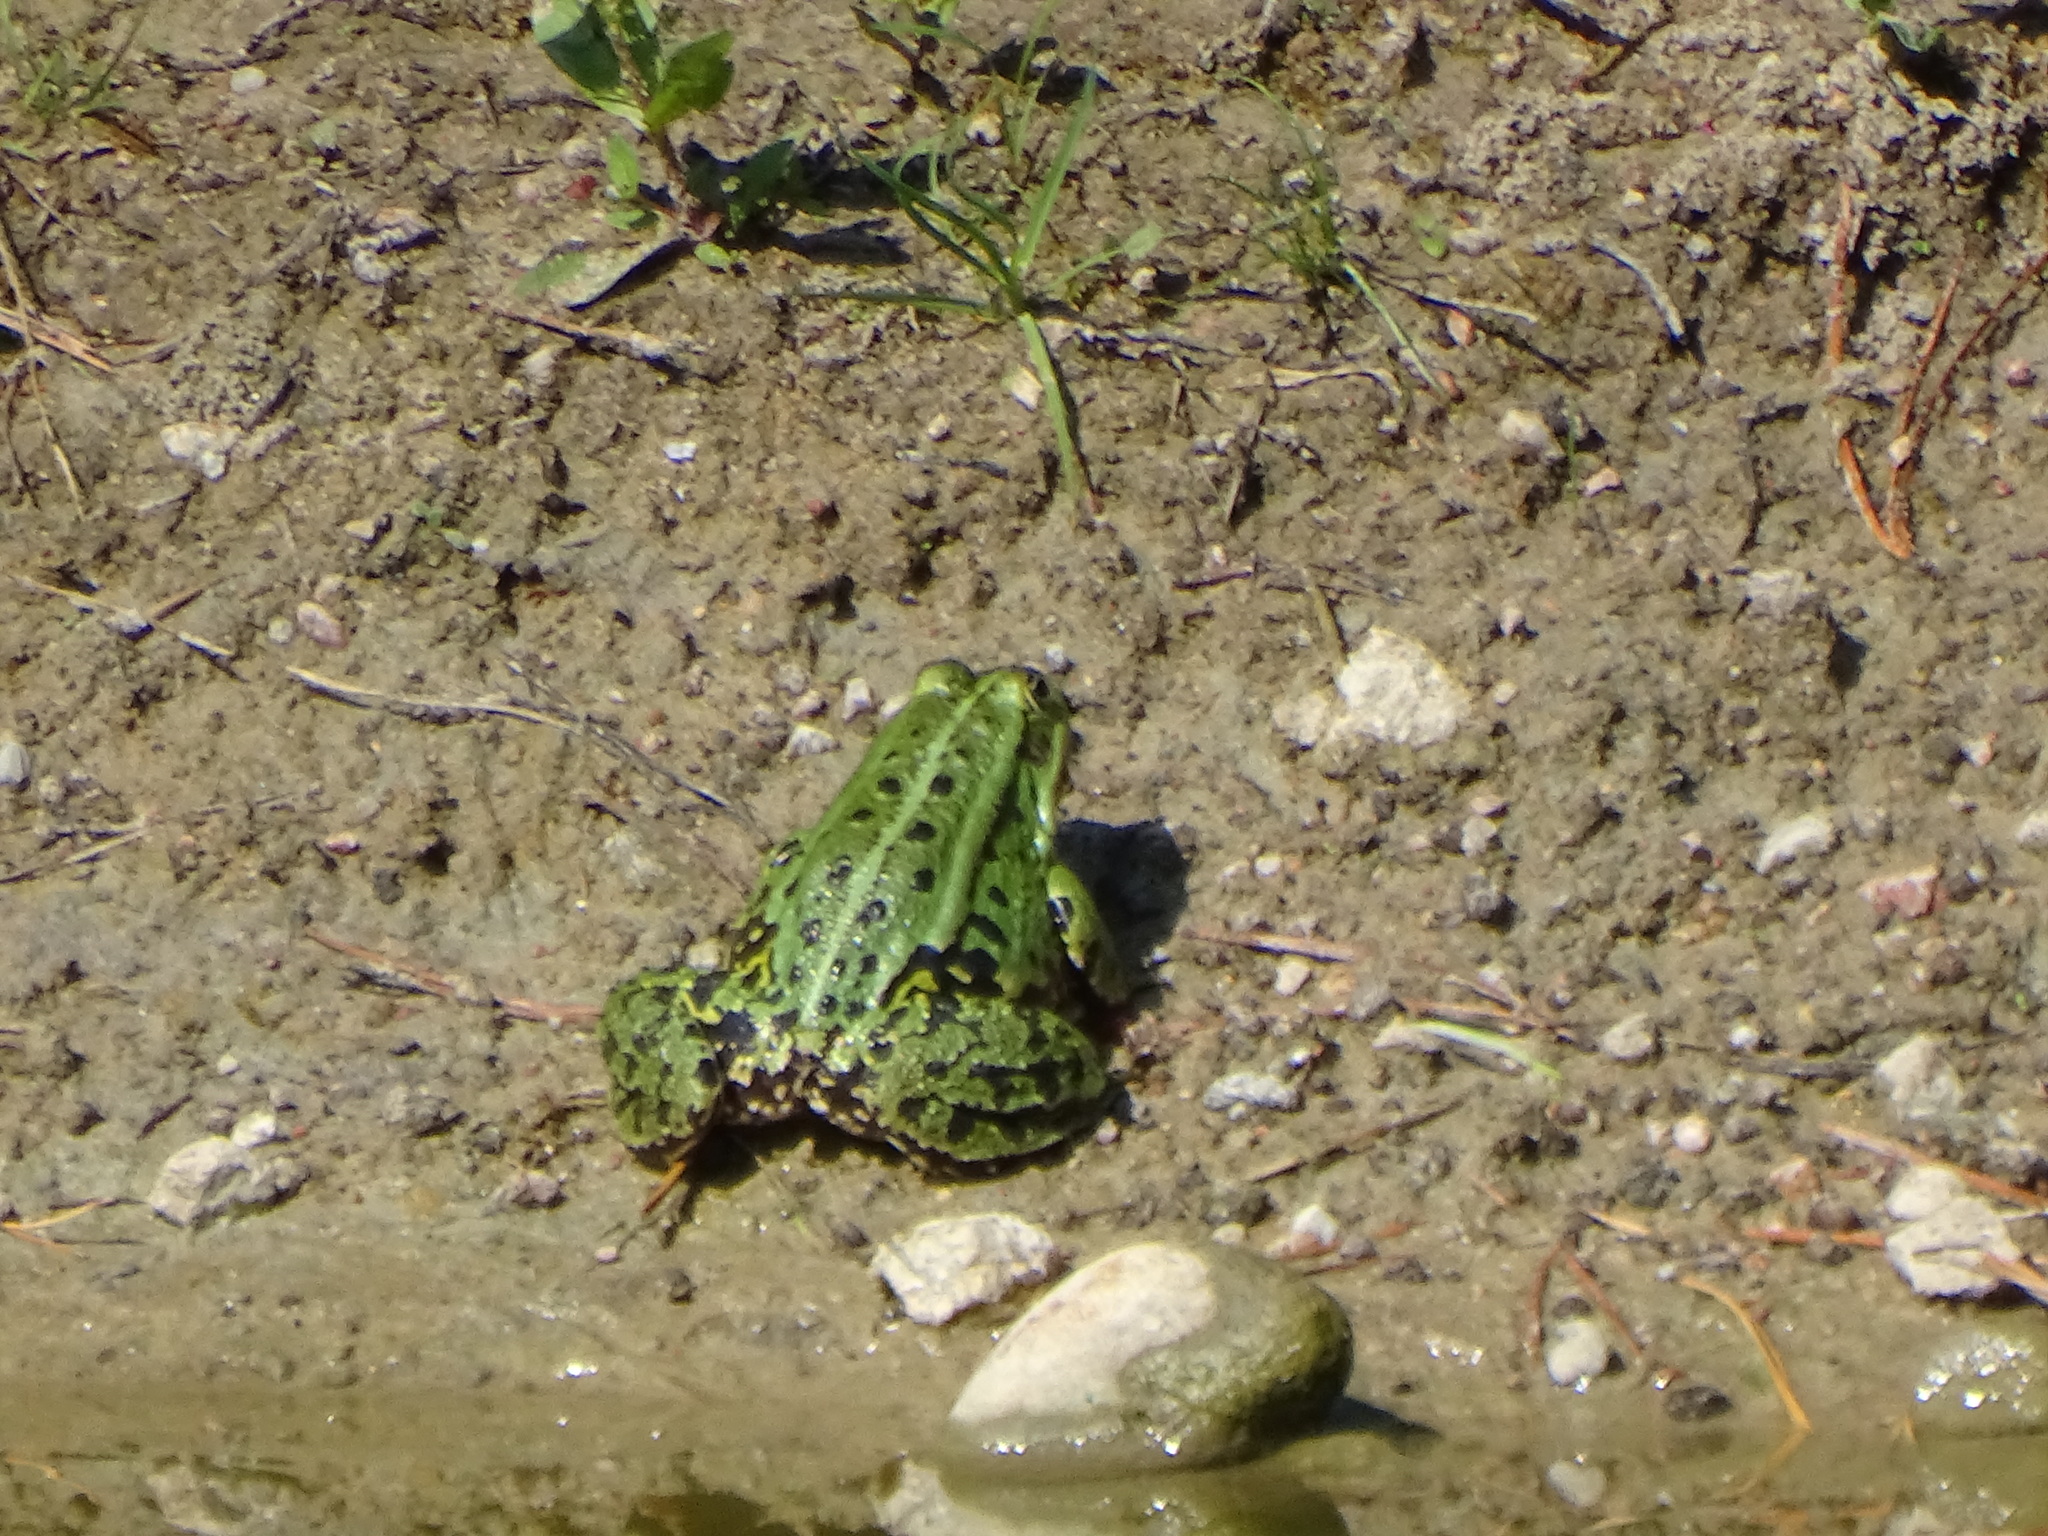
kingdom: Animalia
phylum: Chordata
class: Amphibia
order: Anura
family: Ranidae
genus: Pelophylax
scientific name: Pelophylax
